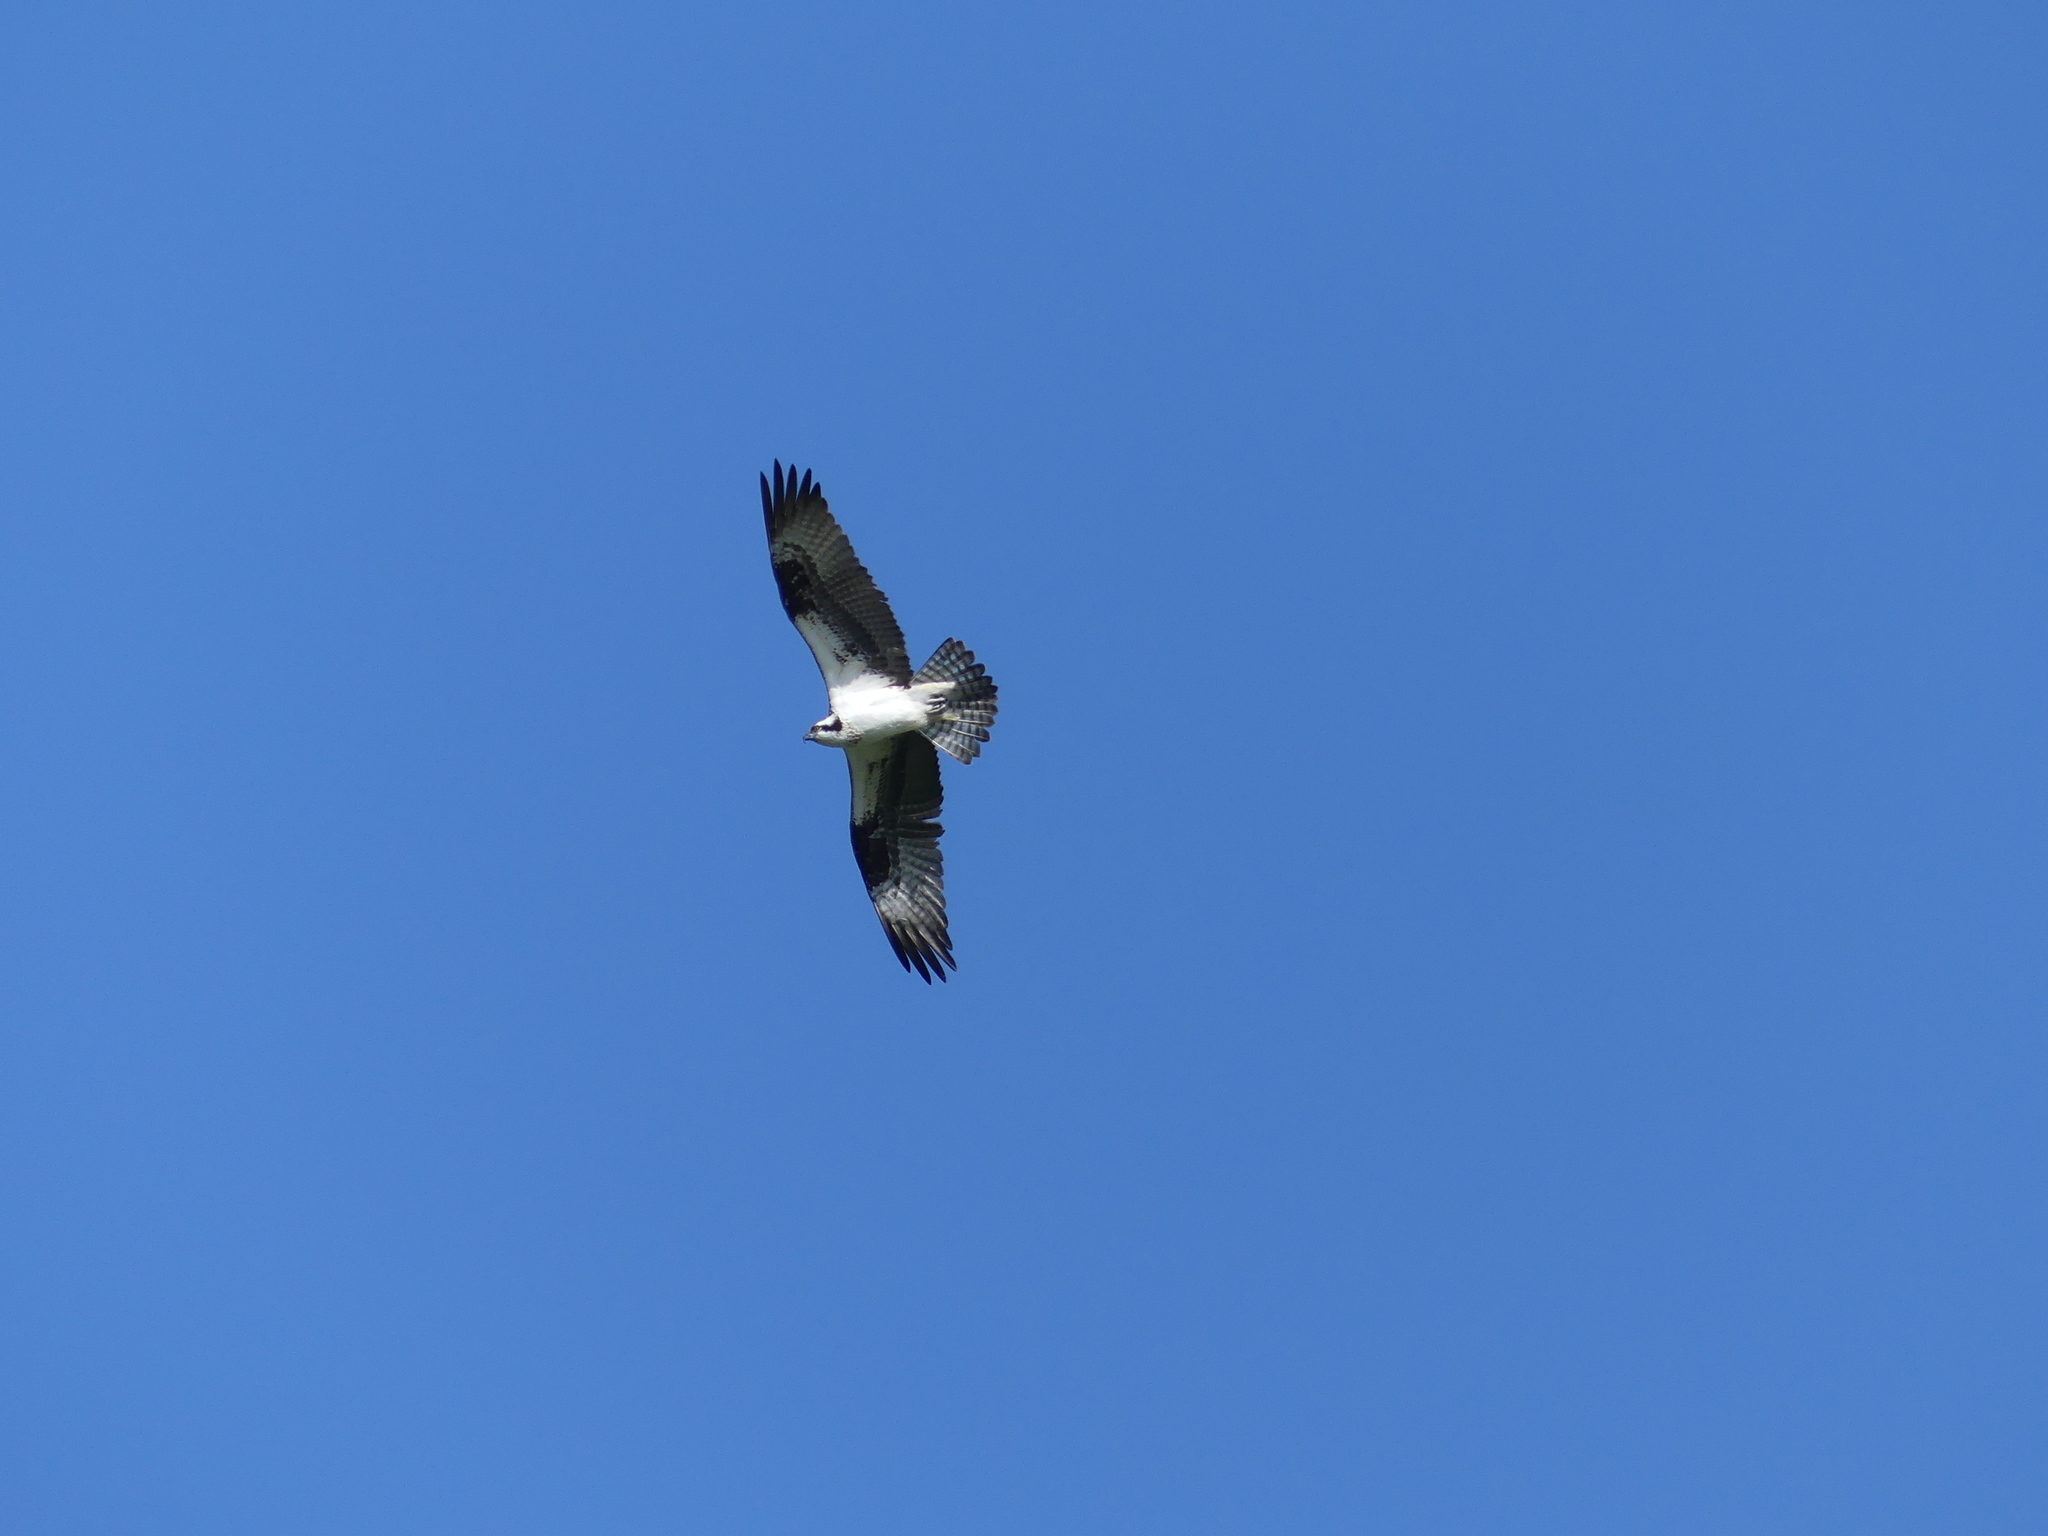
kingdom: Animalia
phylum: Chordata
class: Aves
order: Accipitriformes
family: Pandionidae
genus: Pandion
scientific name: Pandion haliaetus
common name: Osprey
